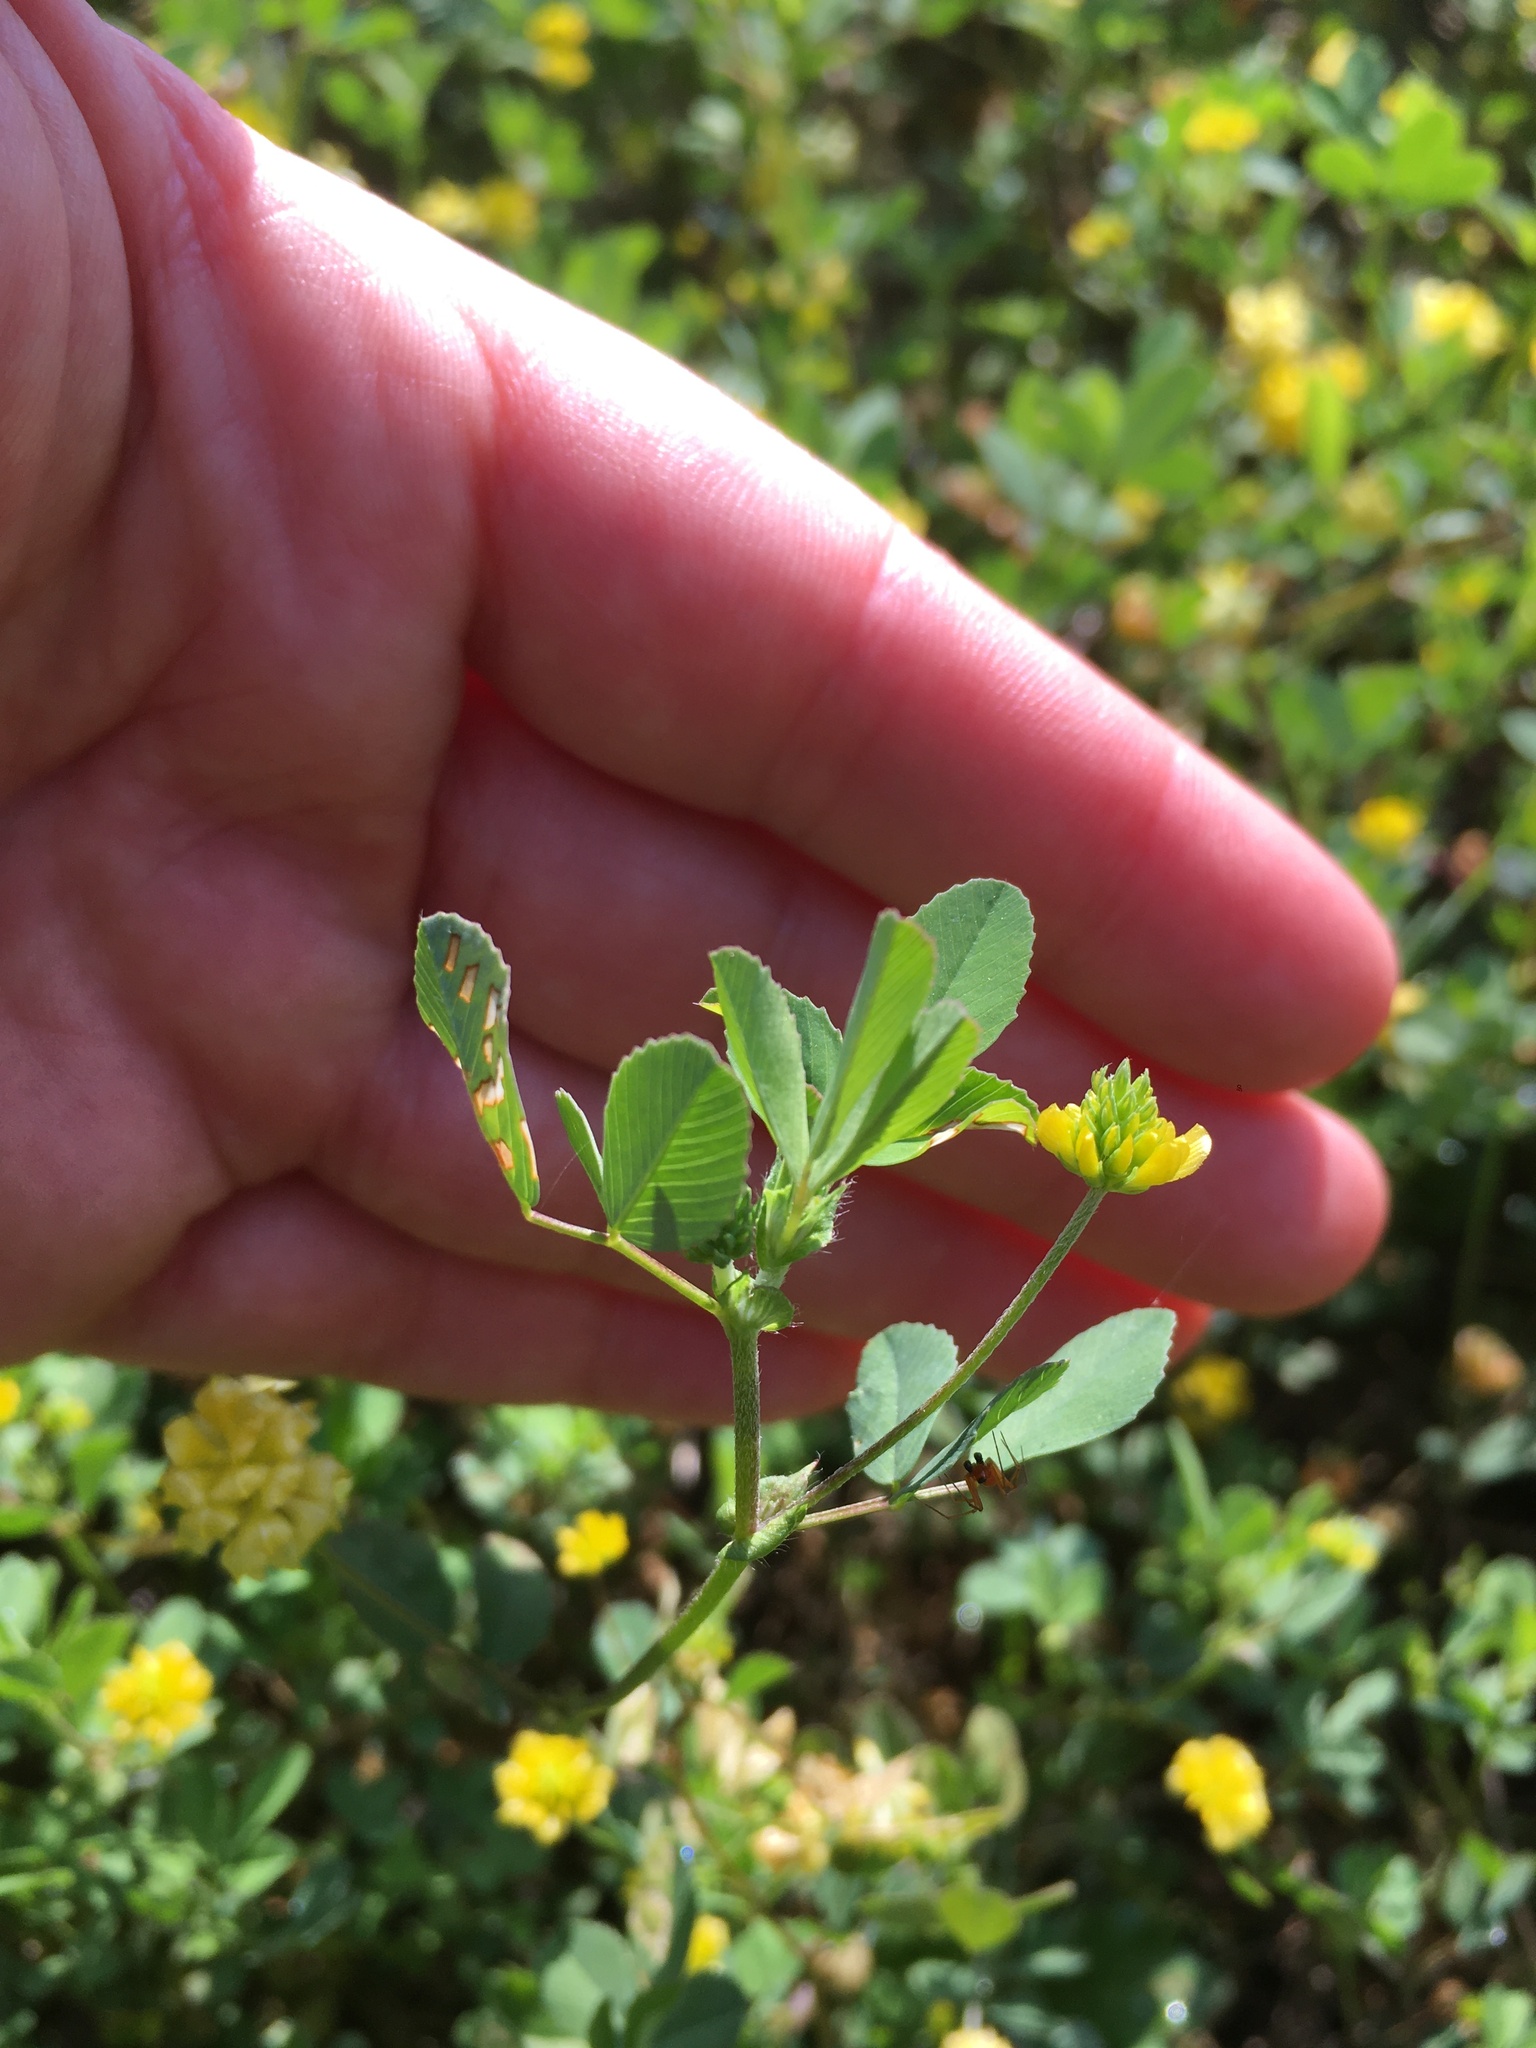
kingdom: Plantae
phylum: Tracheophyta
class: Magnoliopsida
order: Fabales
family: Fabaceae
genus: Trifolium
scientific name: Trifolium campestre
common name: Field clover
